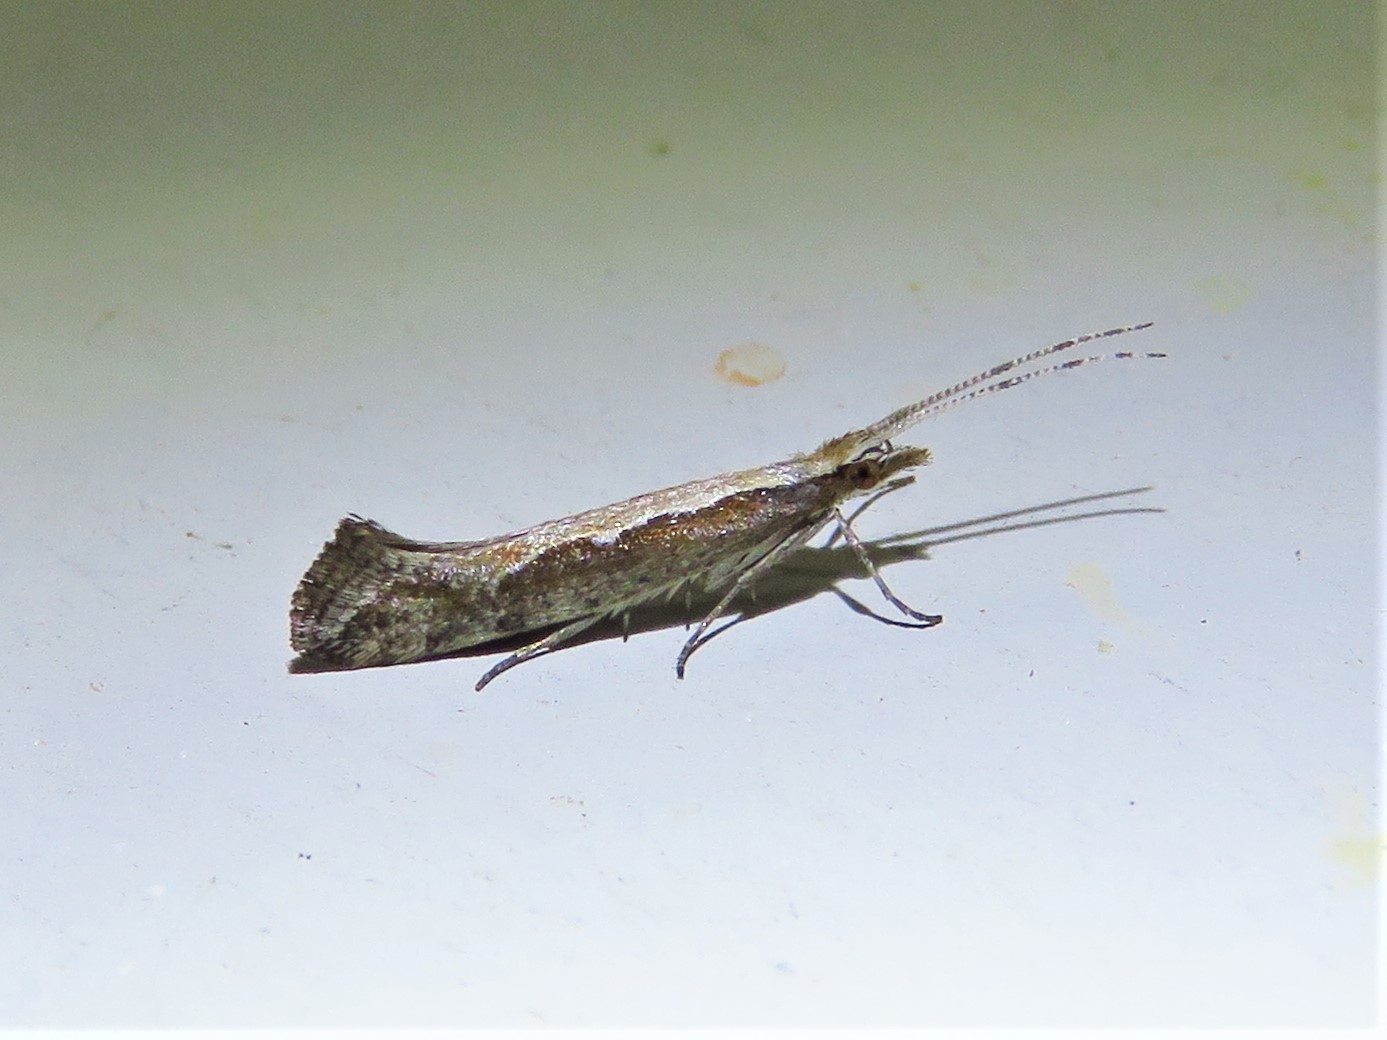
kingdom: Animalia
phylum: Arthropoda
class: Insecta
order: Lepidoptera
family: Plutellidae
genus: Plutella
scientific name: Plutella xylostella
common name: Diamond-back moth
